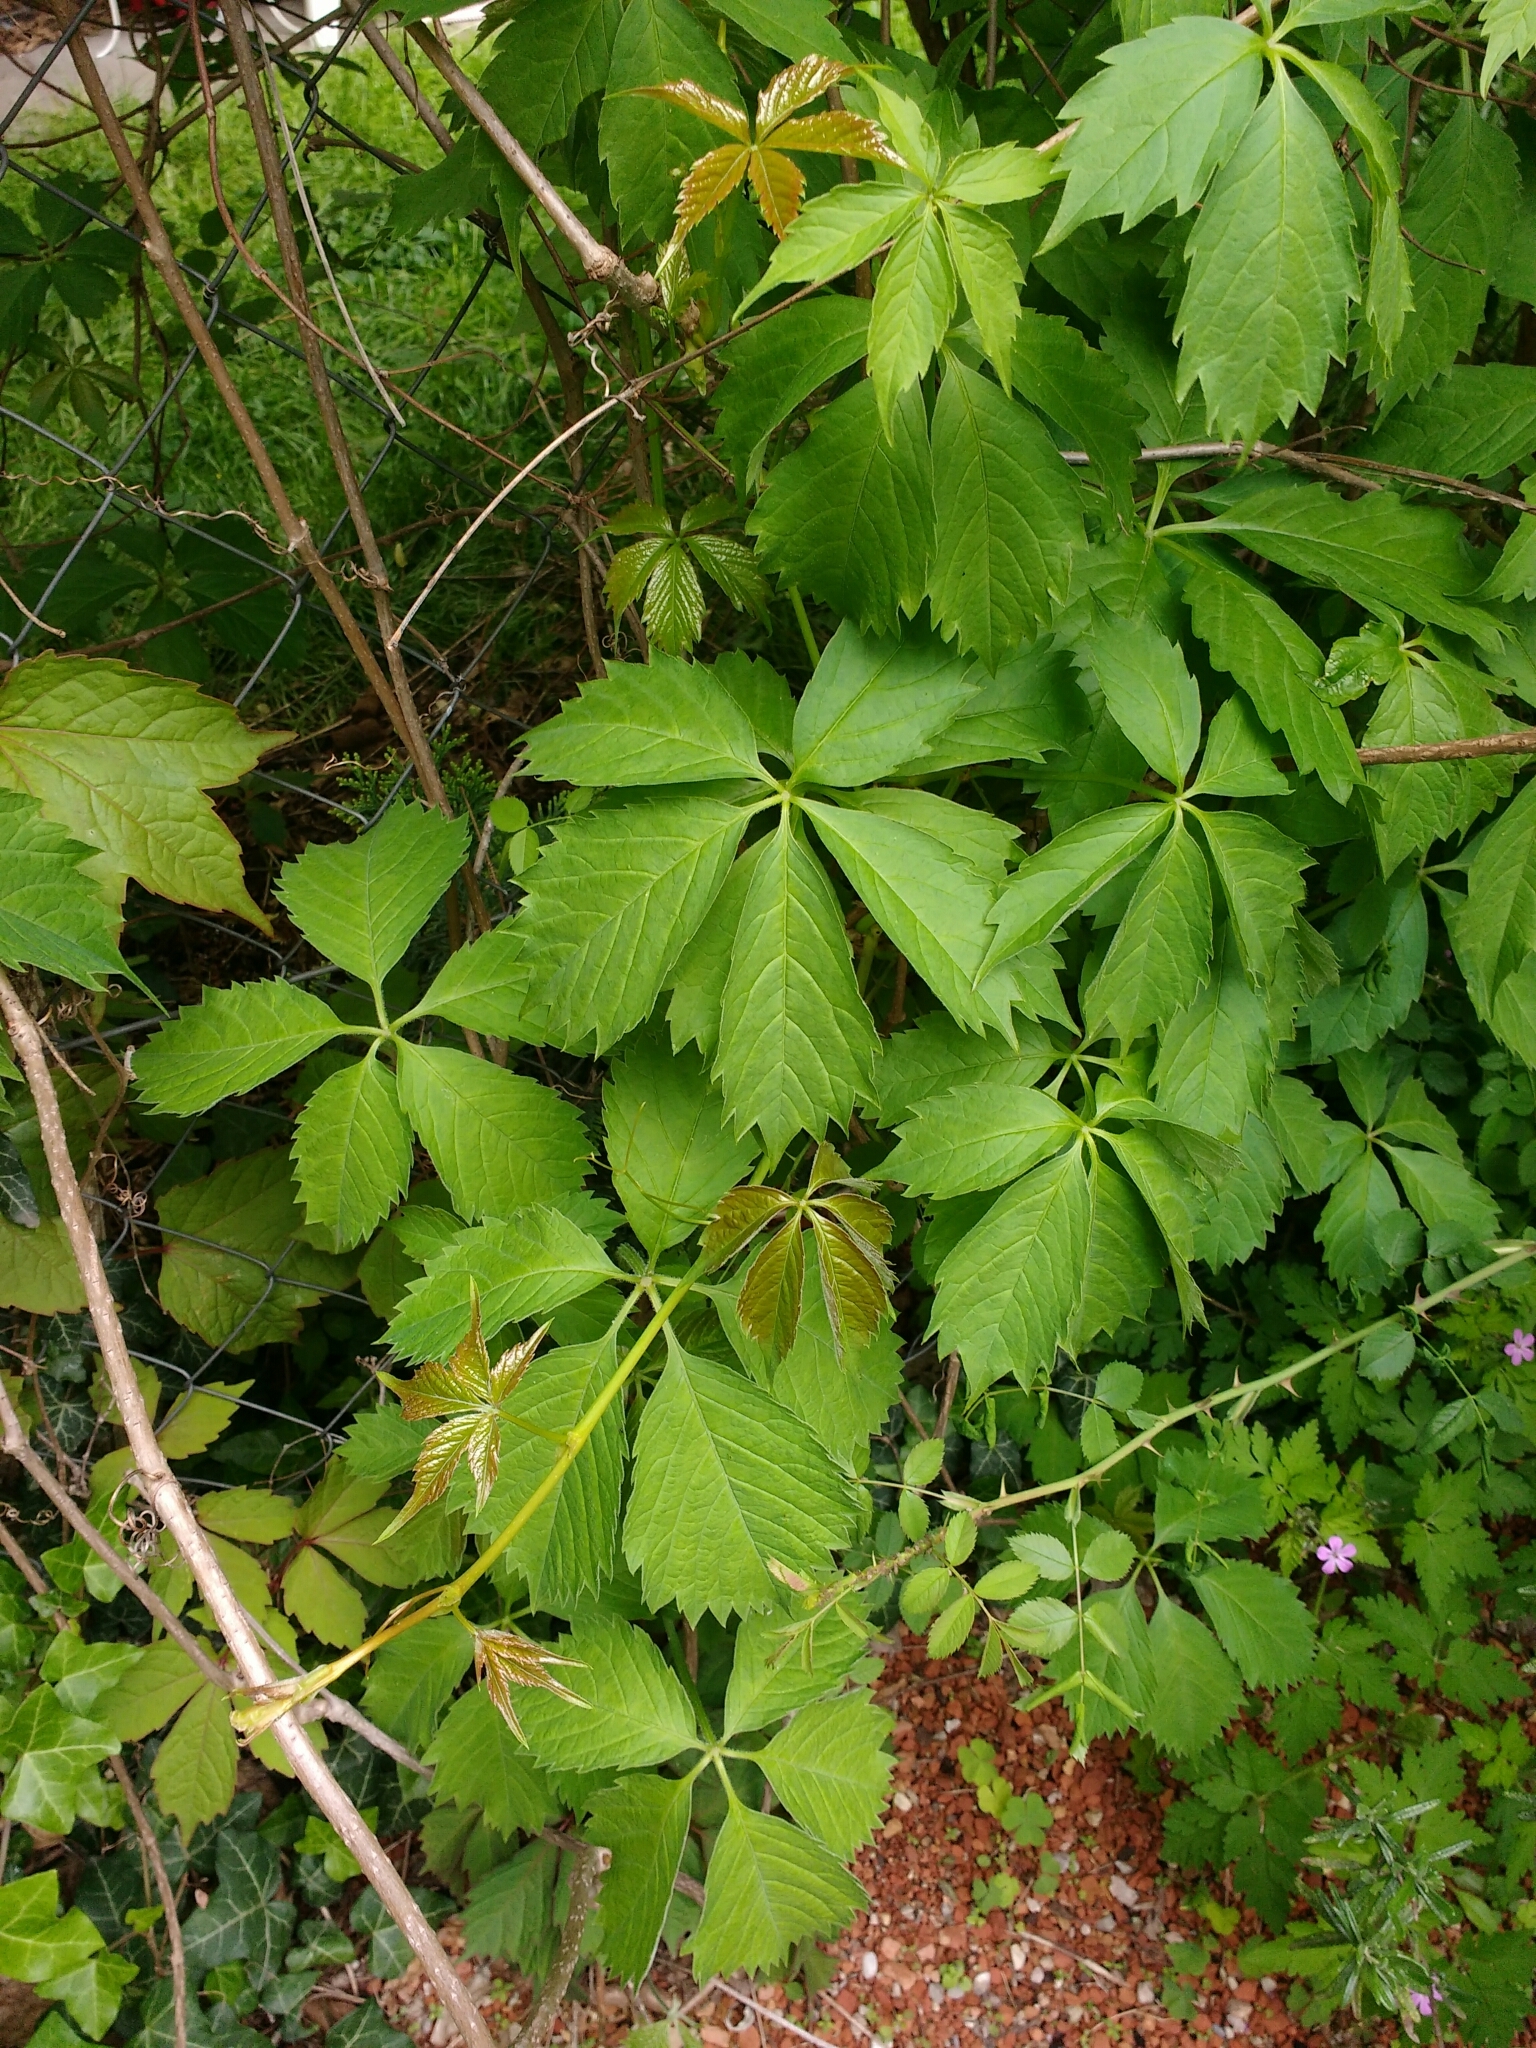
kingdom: Plantae
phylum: Tracheophyta
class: Magnoliopsida
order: Vitales
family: Vitaceae
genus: Parthenocissus
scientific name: Parthenocissus inserta
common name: False virginia-creeper
